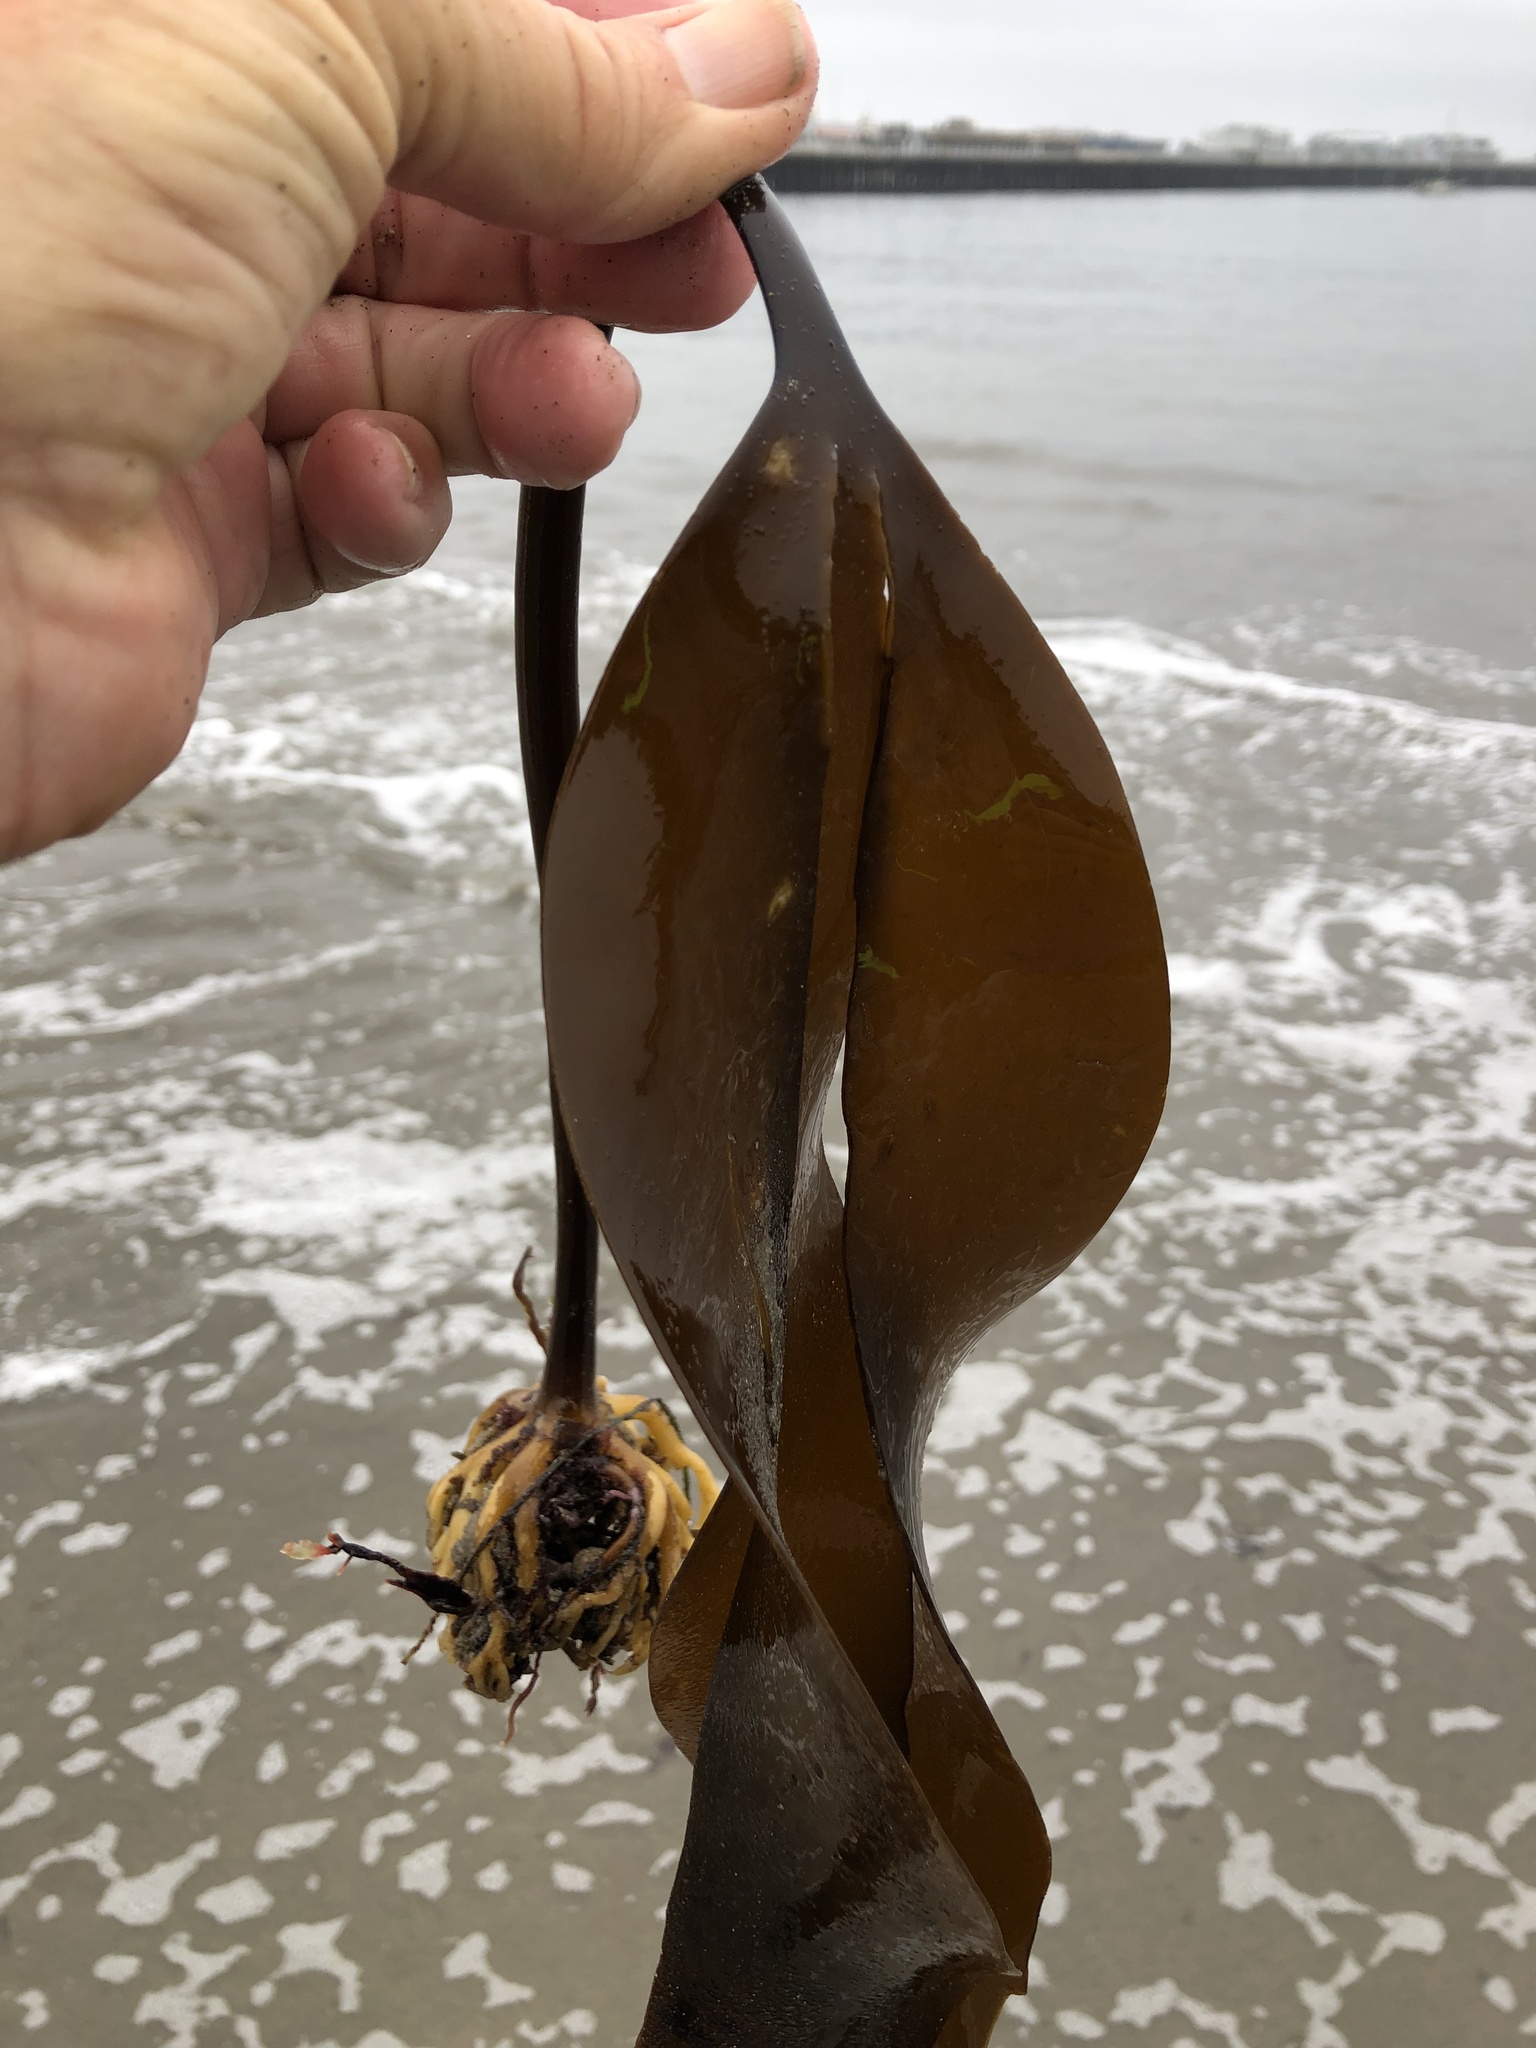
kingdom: Chromista
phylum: Ochrophyta
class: Phaeophyceae
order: Laminariales
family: Laminariaceae
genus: Laminaria
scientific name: Laminaria setchellii
